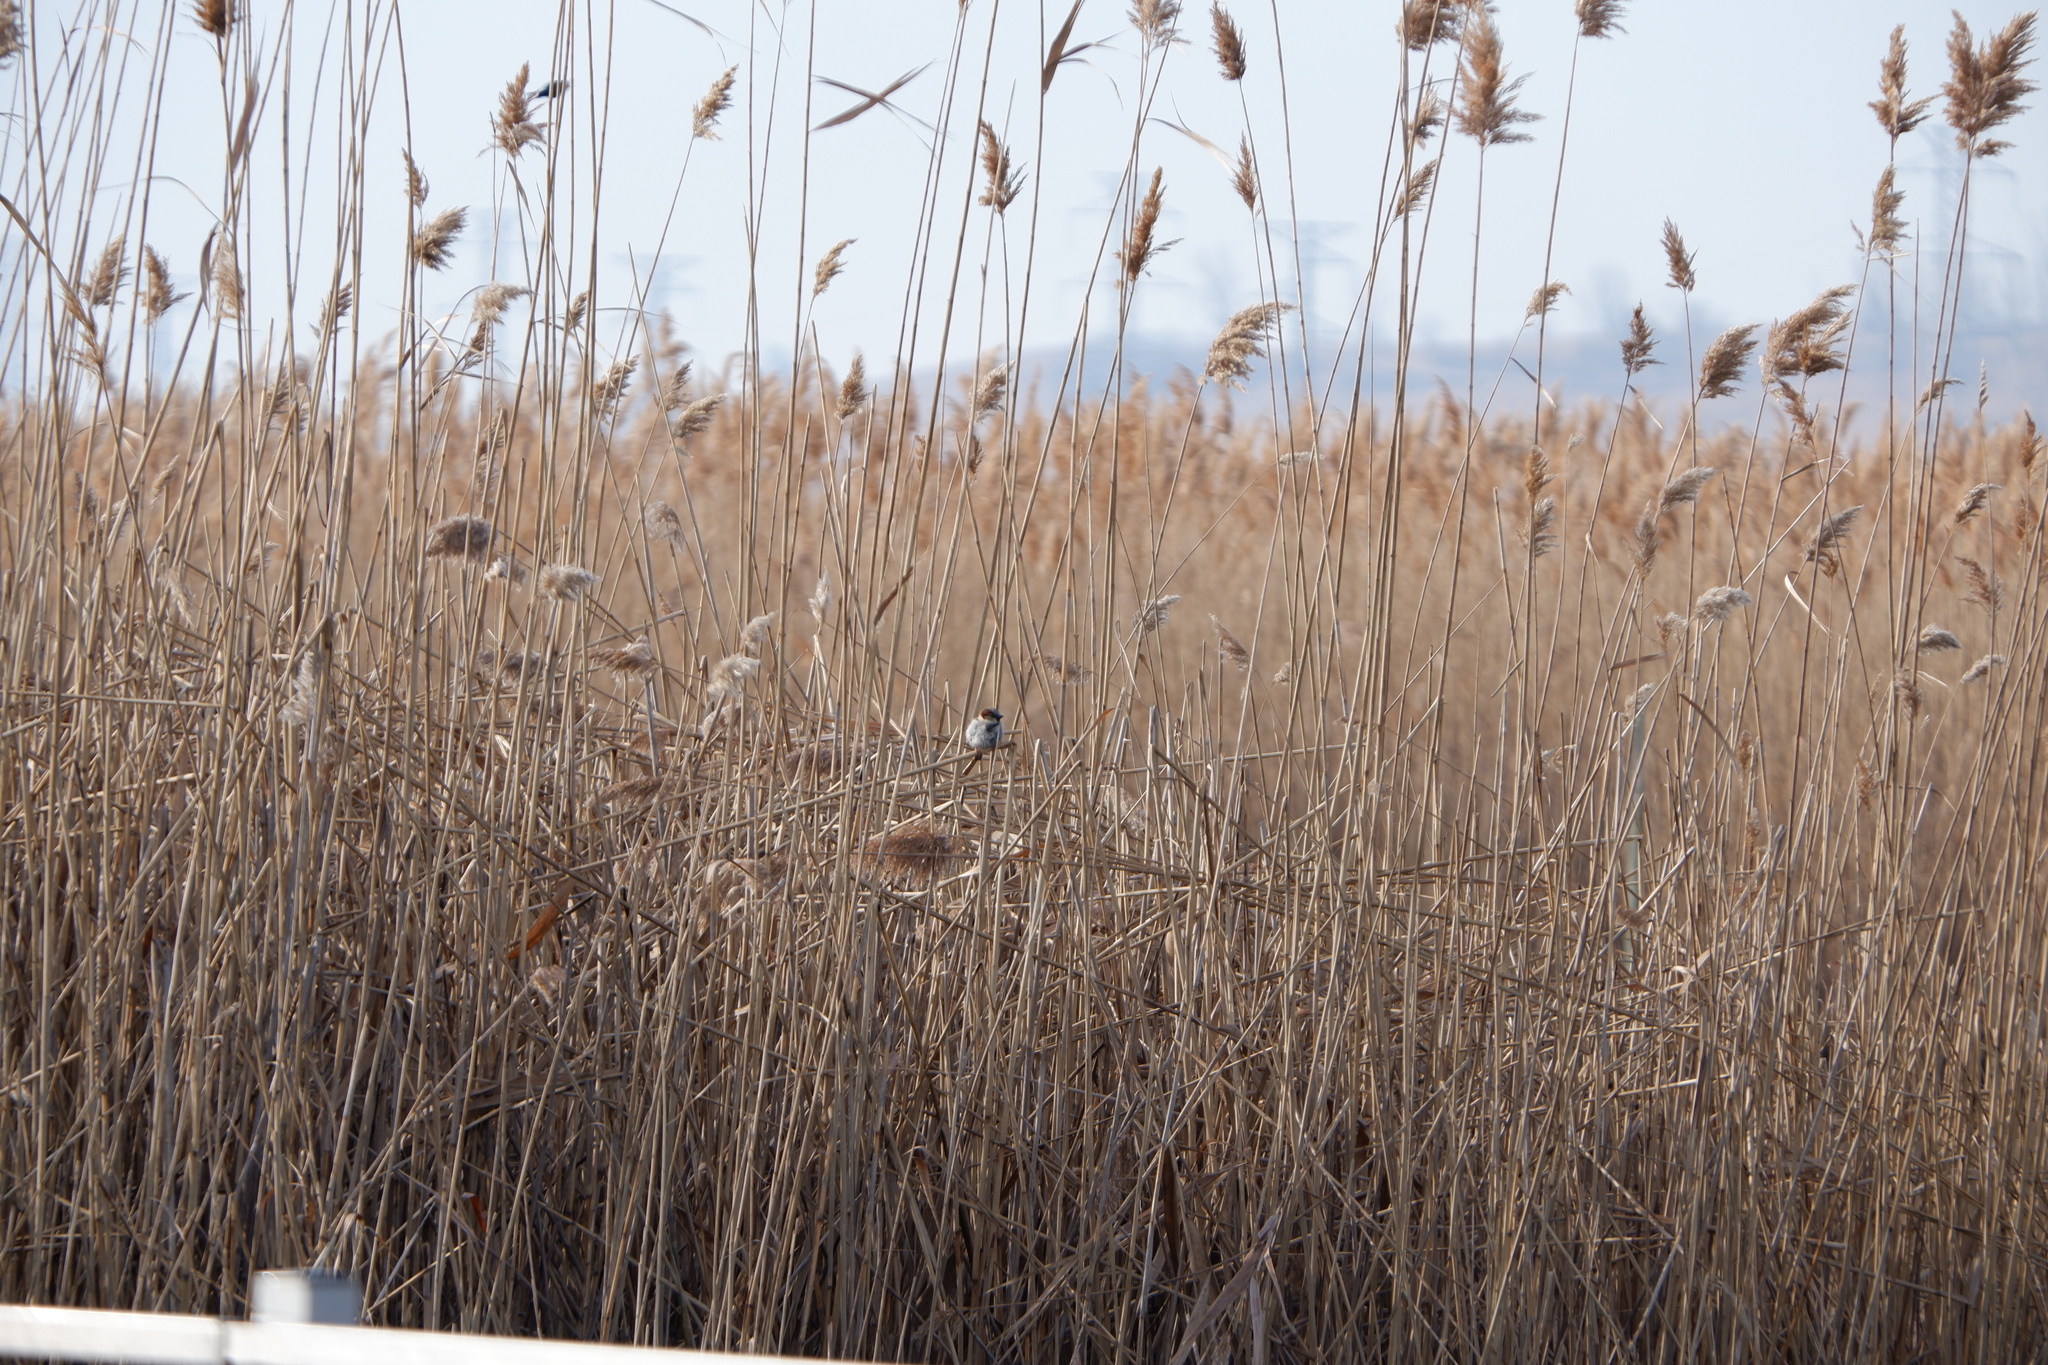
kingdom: Animalia
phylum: Chordata
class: Aves
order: Passeriformes
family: Passeridae
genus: Passer
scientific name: Passer domesticus
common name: House sparrow
